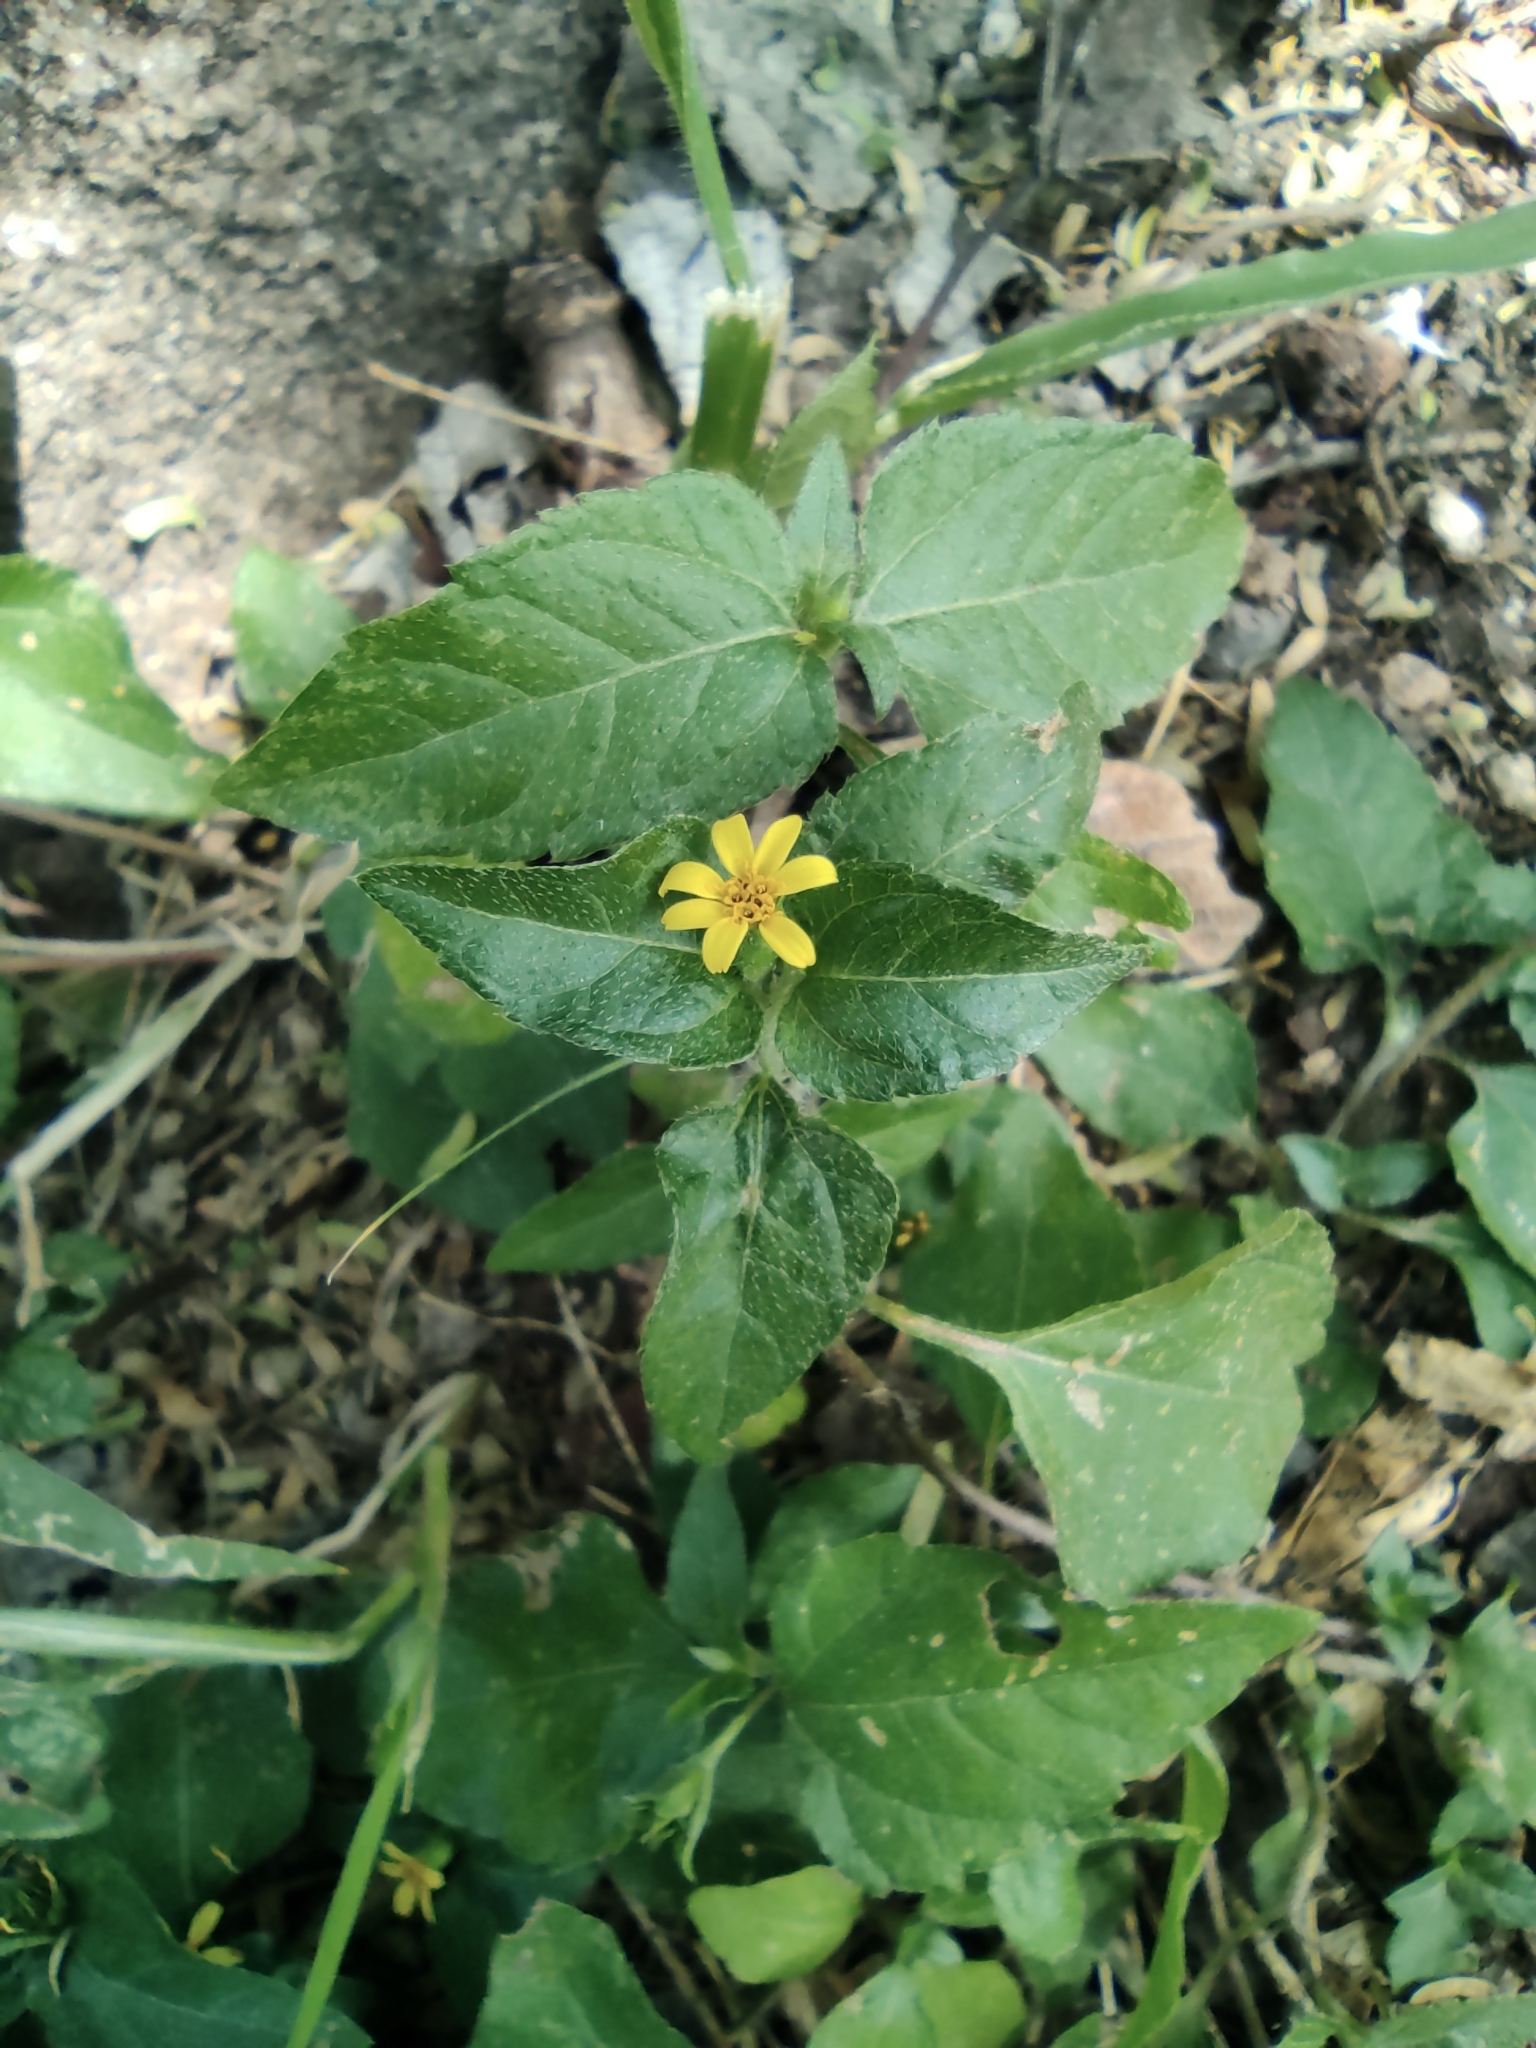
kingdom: Plantae
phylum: Tracheophyta
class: Magnoliopsida
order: Asterales
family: Asteraceae
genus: Calyptocarpus
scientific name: Calyptocarpus vialis
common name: Straggler daisy
